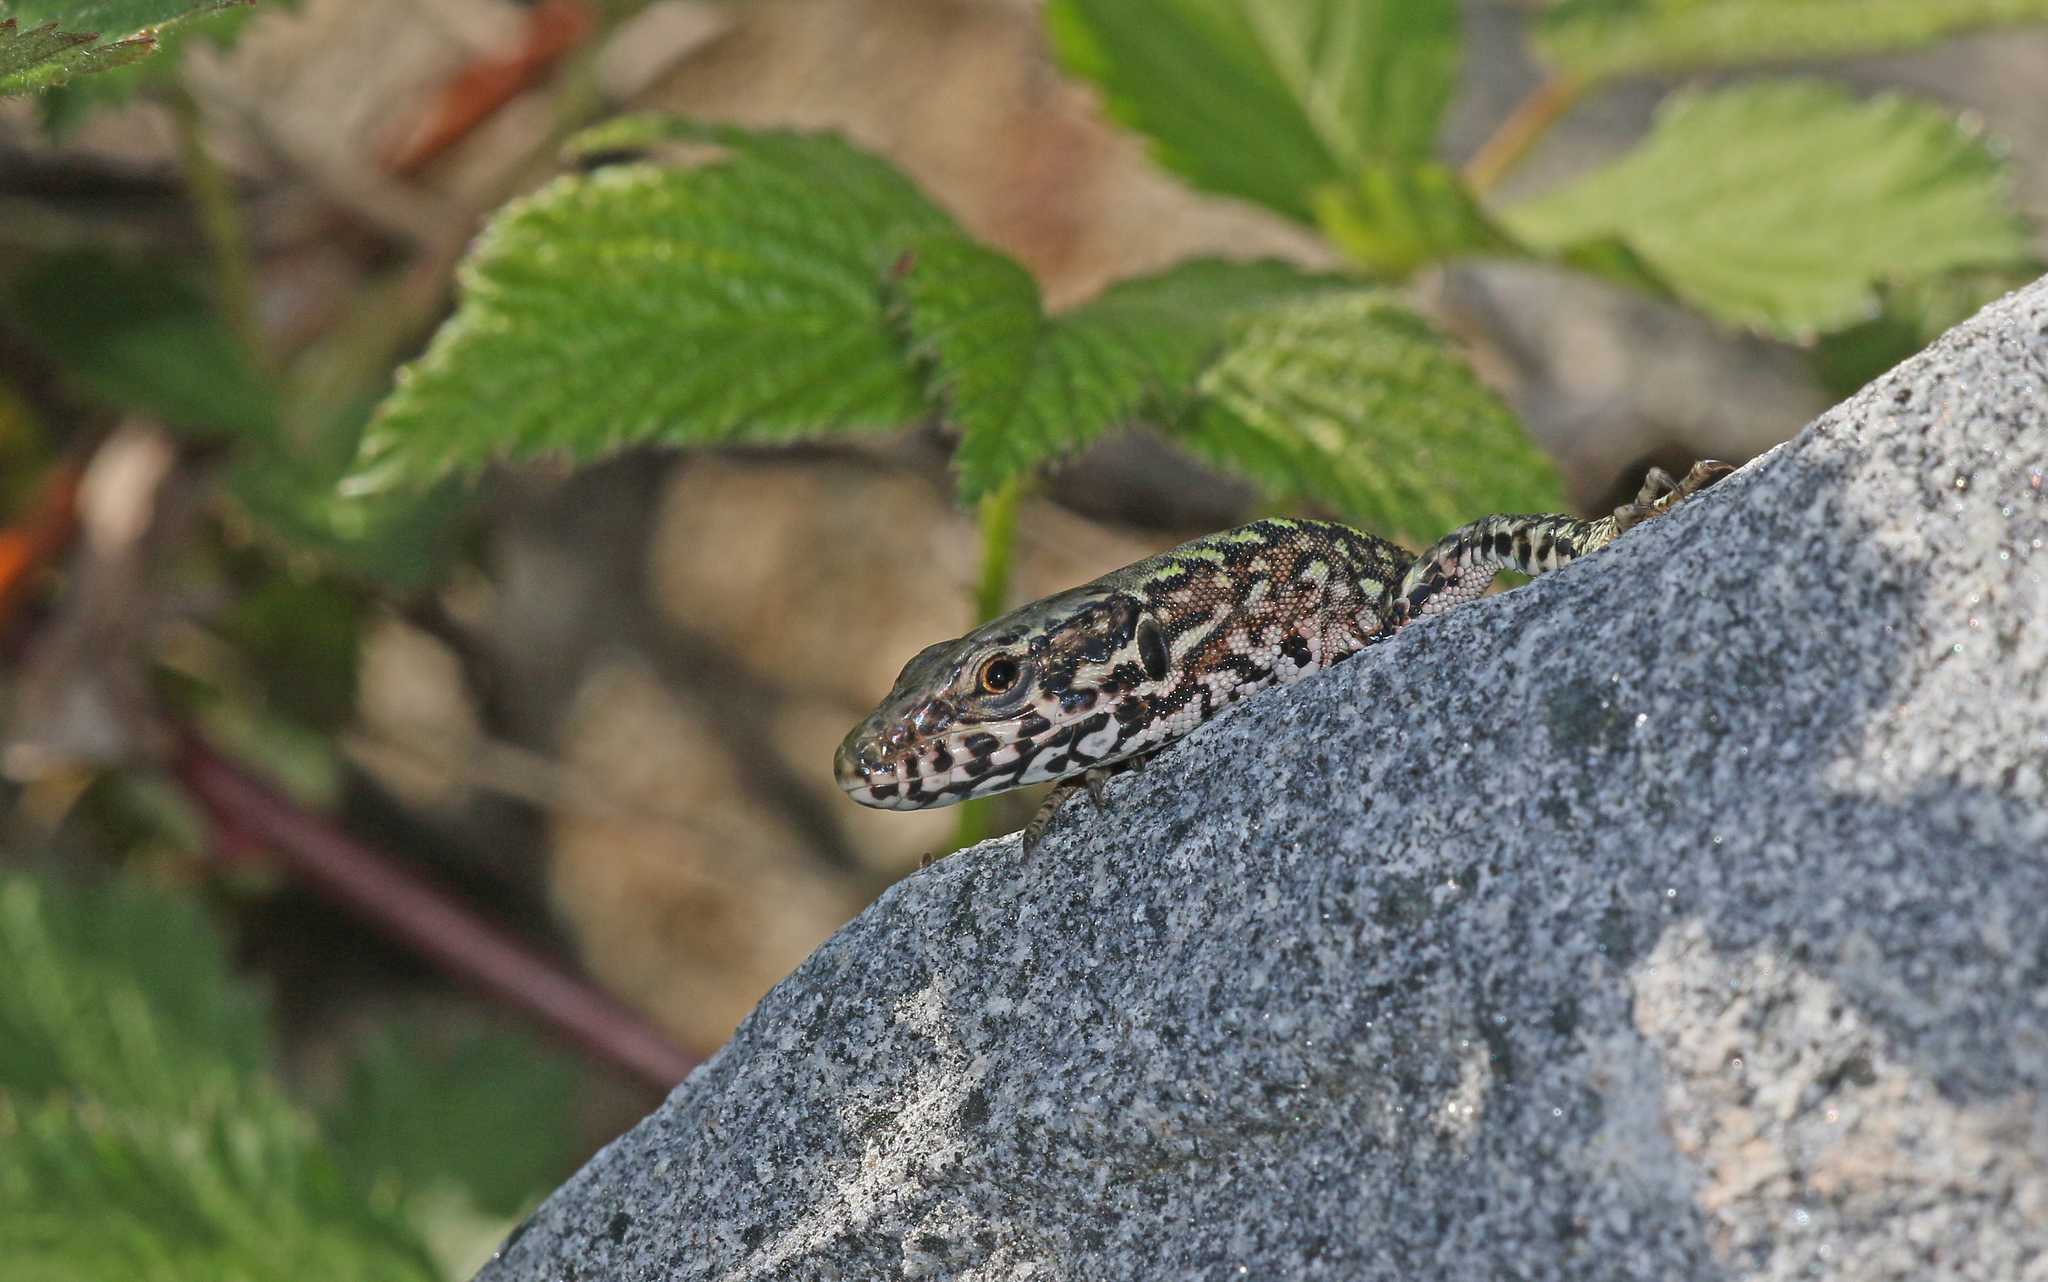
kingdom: Animalia
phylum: Chordata
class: Squamata
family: Lacertidae
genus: Podarcis
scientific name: Podarcis muralis
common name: Common wall lizard
